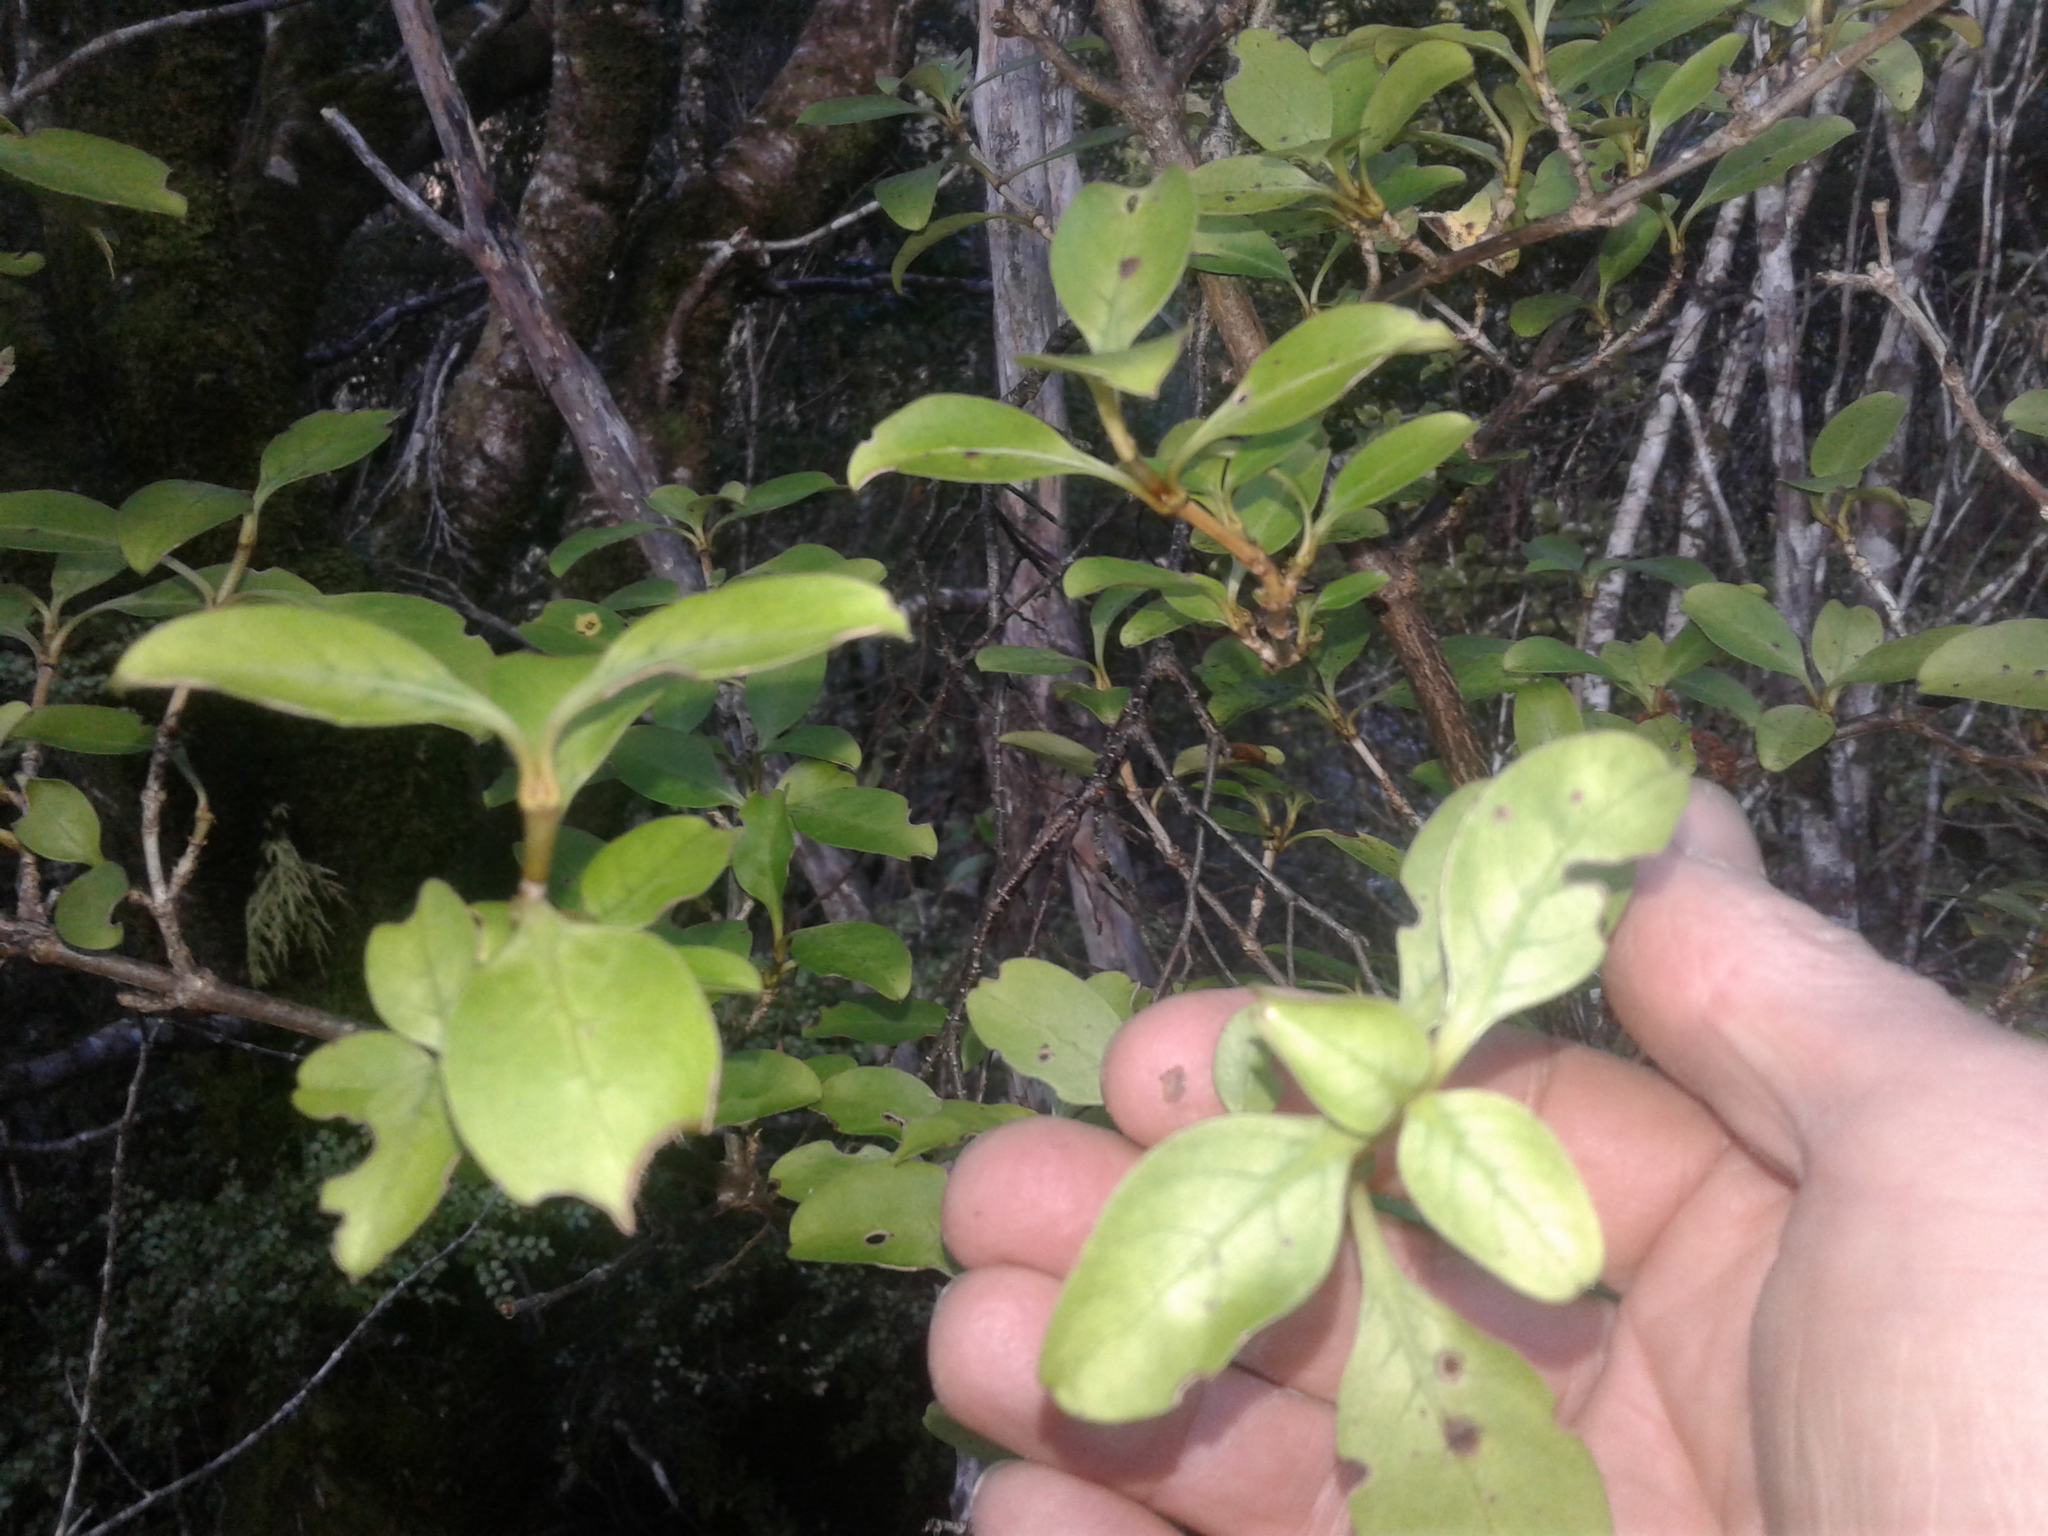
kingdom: Plantae
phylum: Tracheophyta
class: Magnoliopsida
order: Gentianales
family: Rubiaceae
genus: Coprosma
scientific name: Coprosma foetidissima
